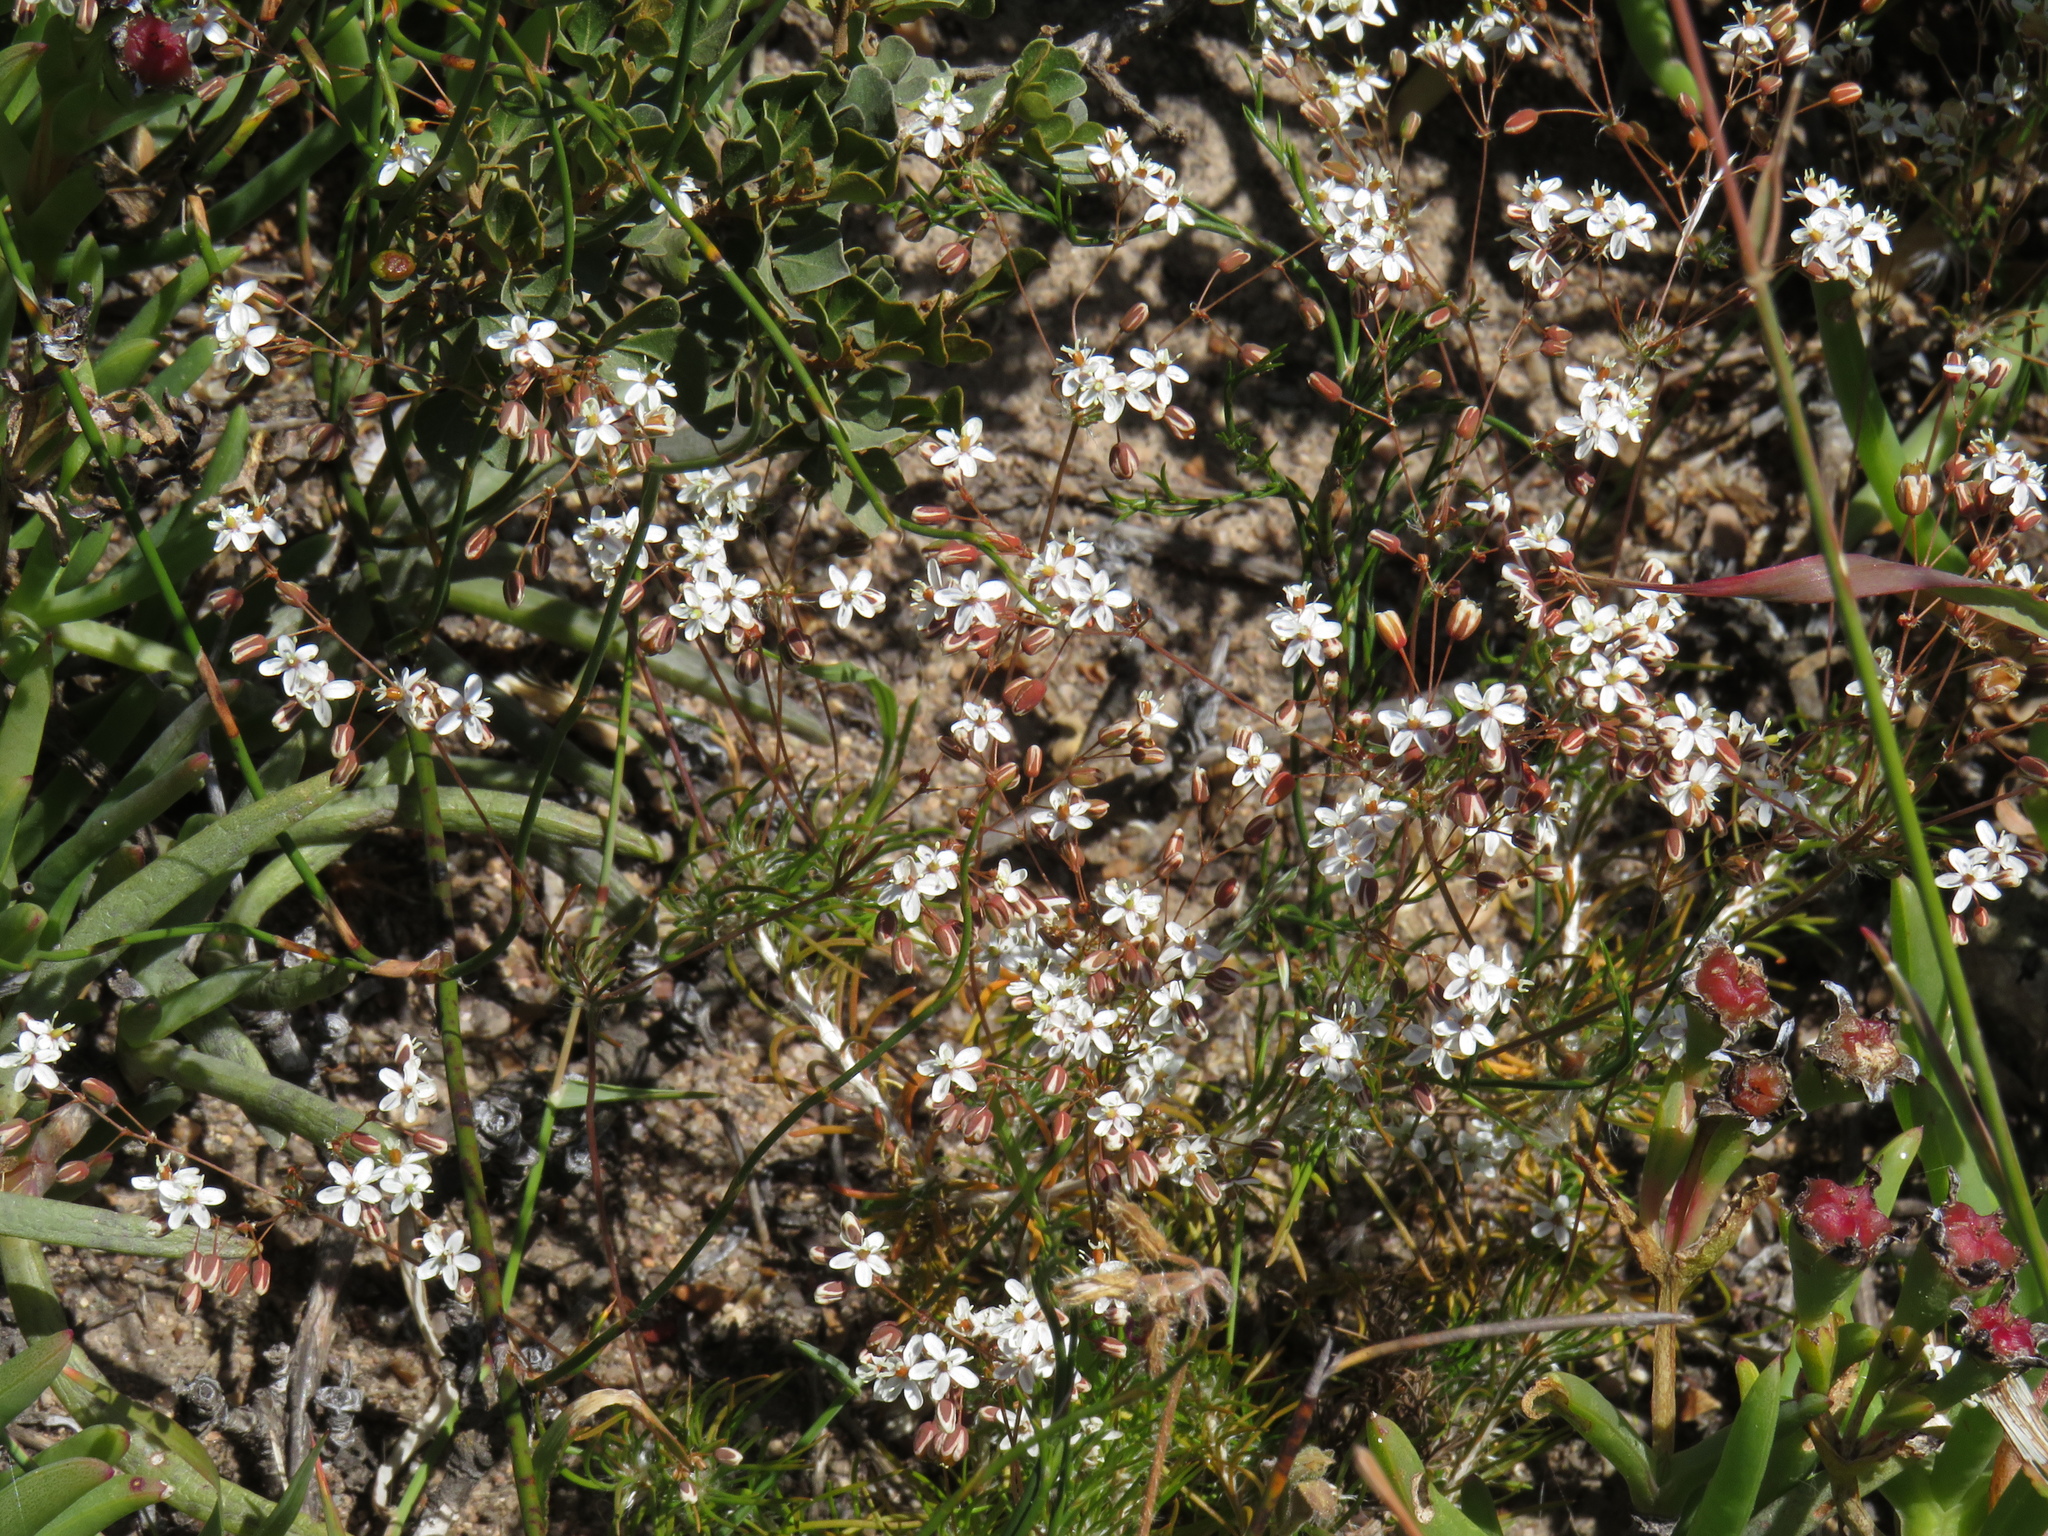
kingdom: Plantae
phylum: Tracheophyta
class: Magnoliopsida
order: Caryophyllales
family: Molluginaceae
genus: Pharnaceum
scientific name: Pharnaceum aurantium
